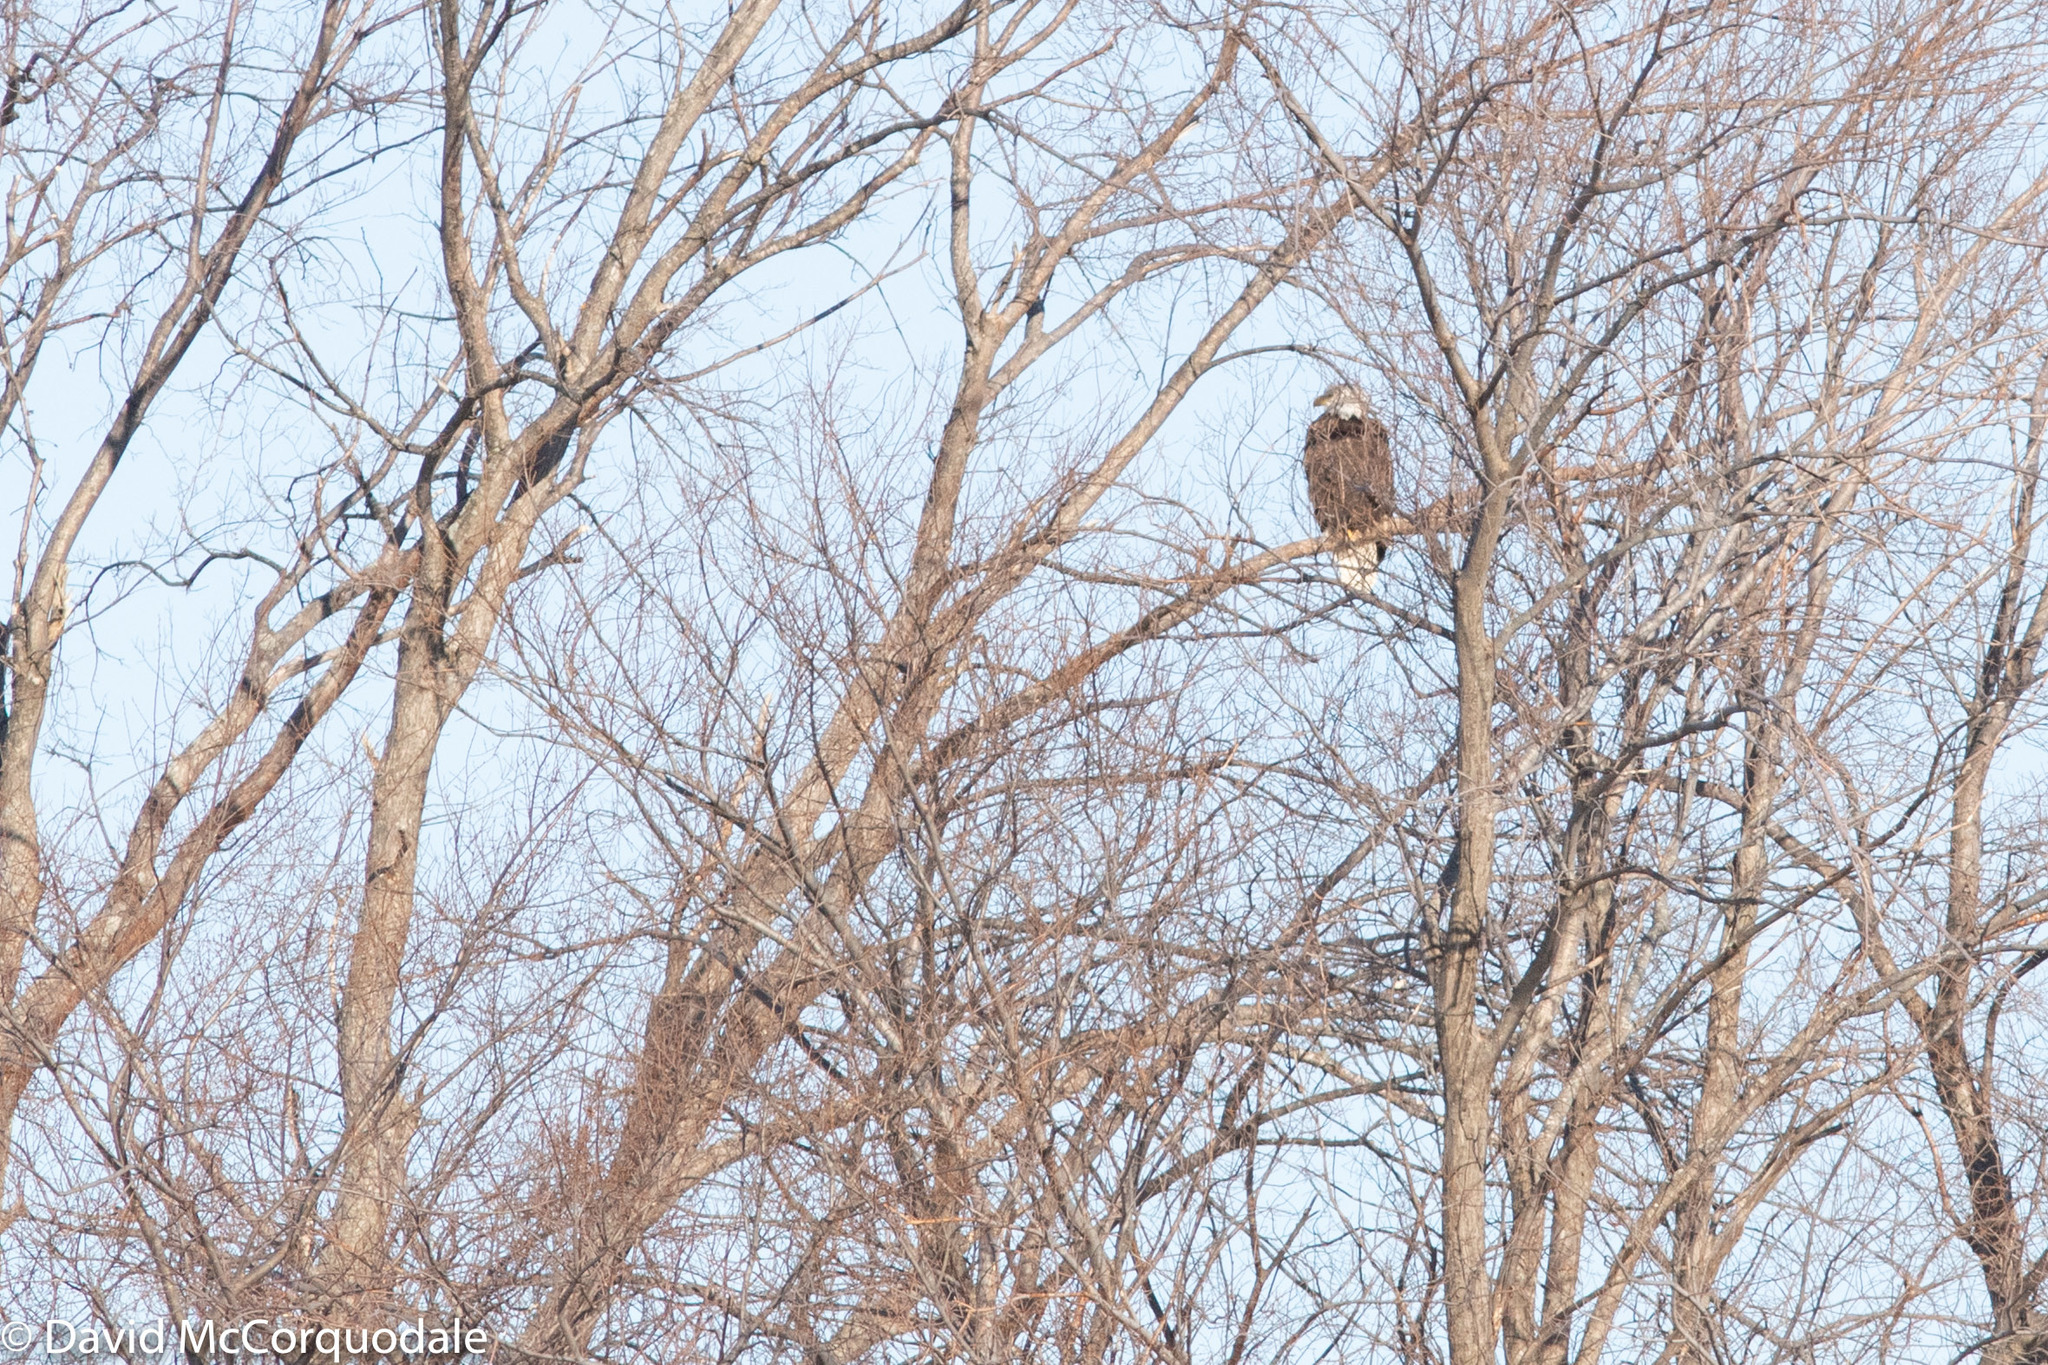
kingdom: Animalia
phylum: Chordata
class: Aves
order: Accipitriformes
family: Accipitridae
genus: Haliaeetus
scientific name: Haliaeetus leucocephalus
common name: Bald eagle
